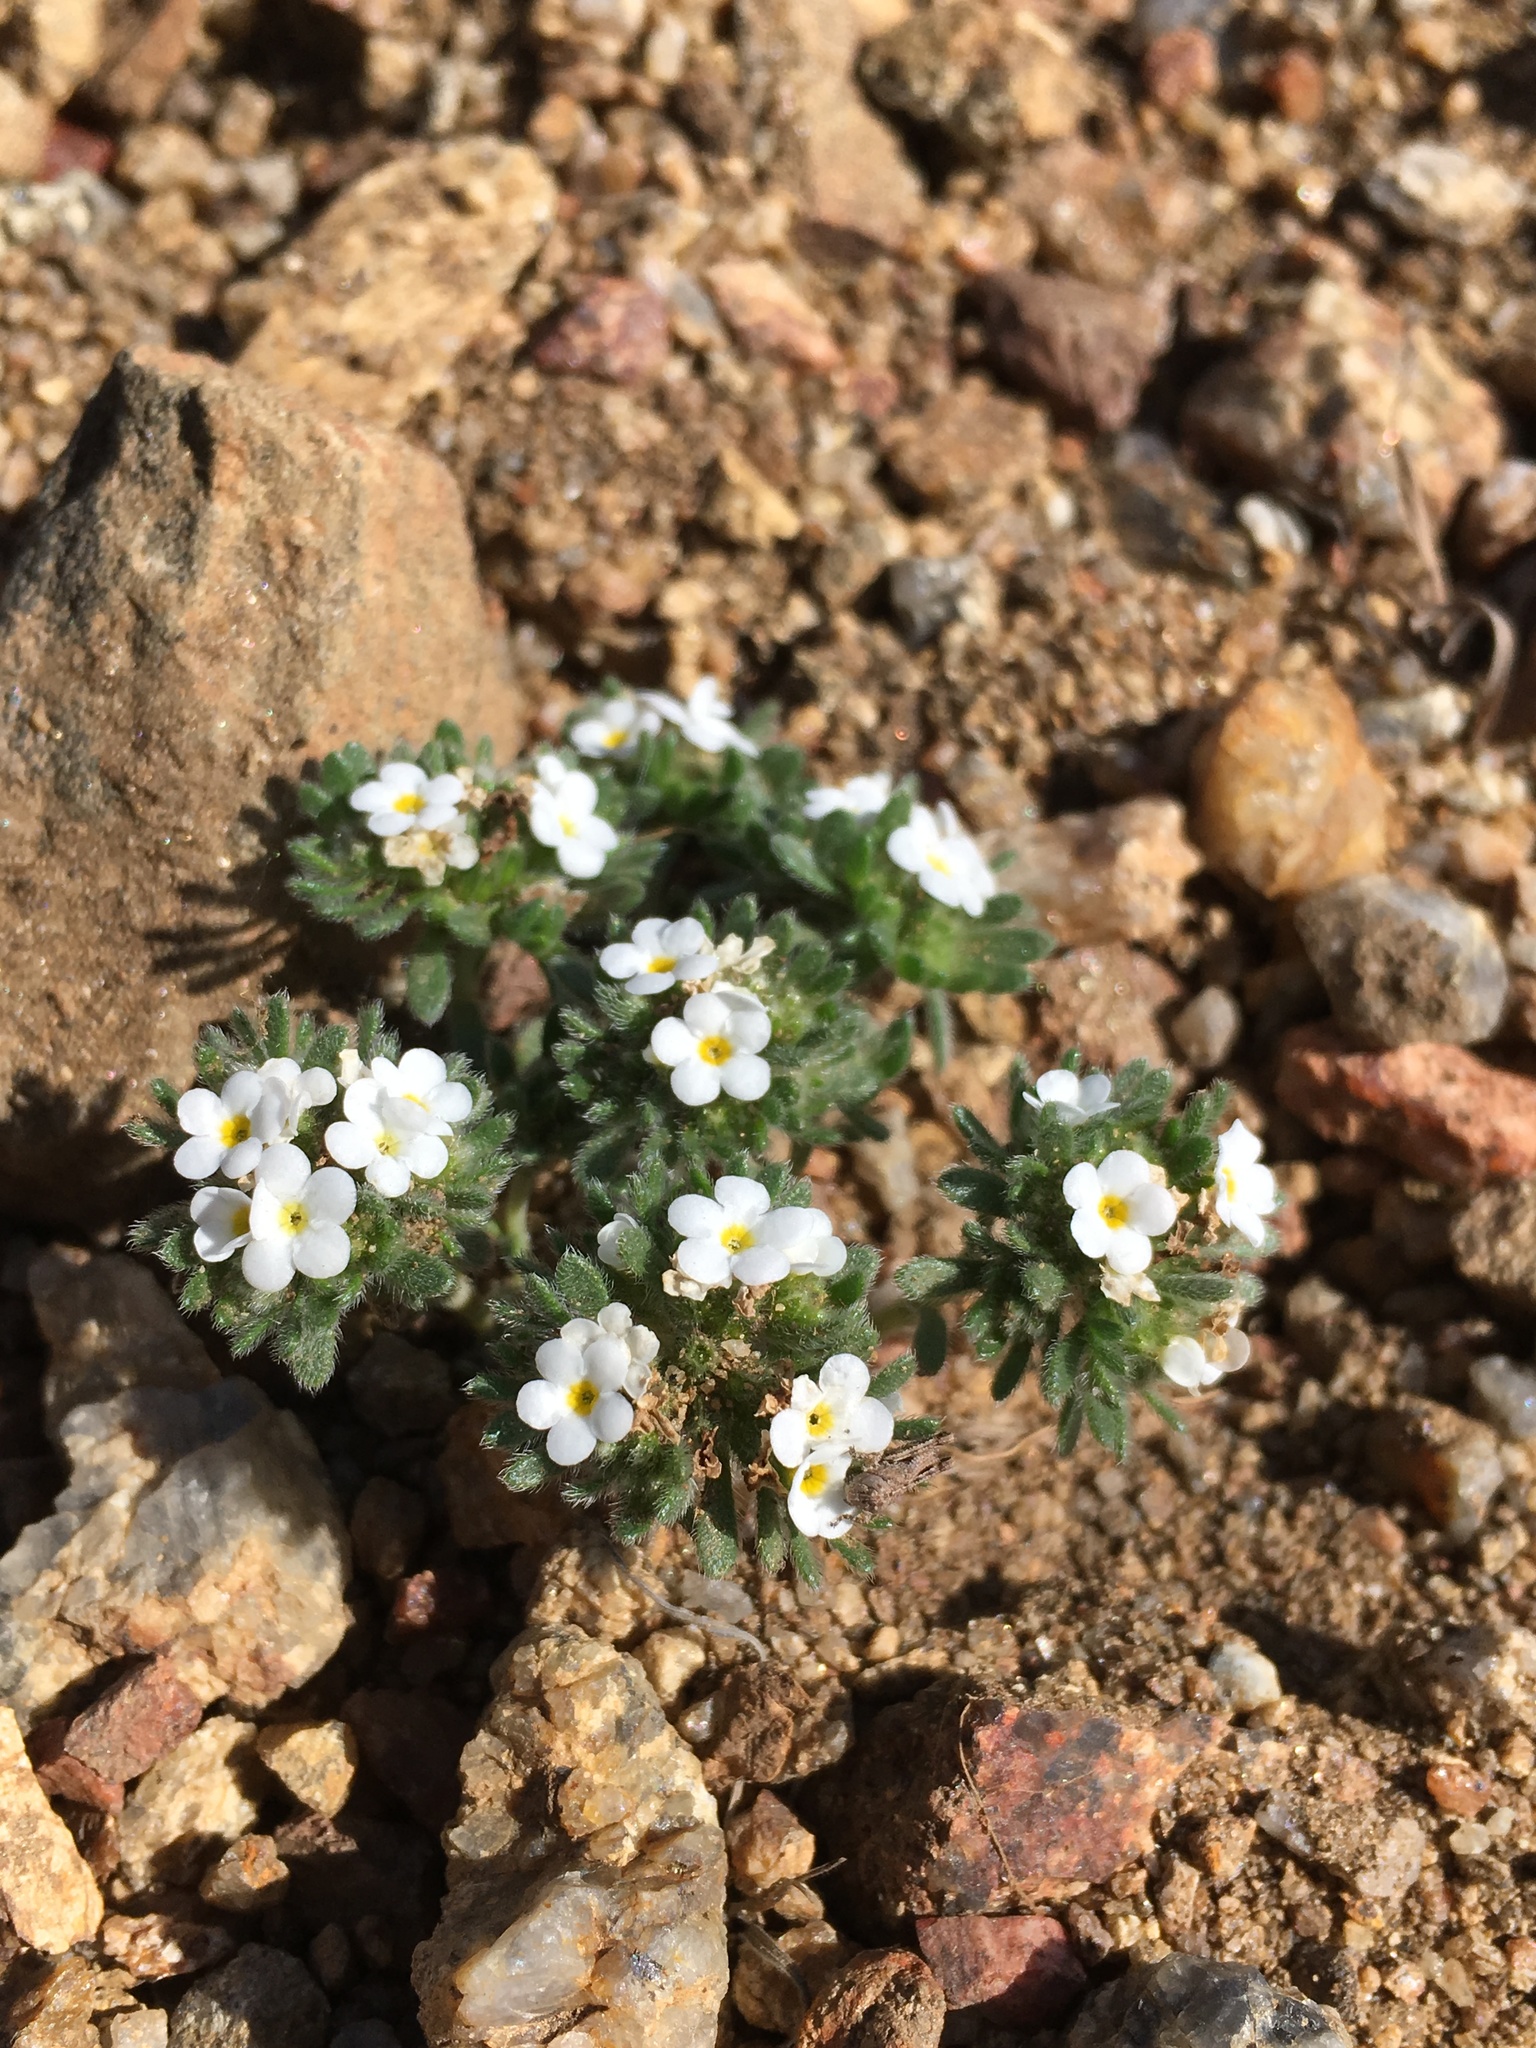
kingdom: Plantae
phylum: Tracheophyta
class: Magnoliopsida
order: Boraginales
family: Boraginaceae
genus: Eremocarya
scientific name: Eremocarya lepida
